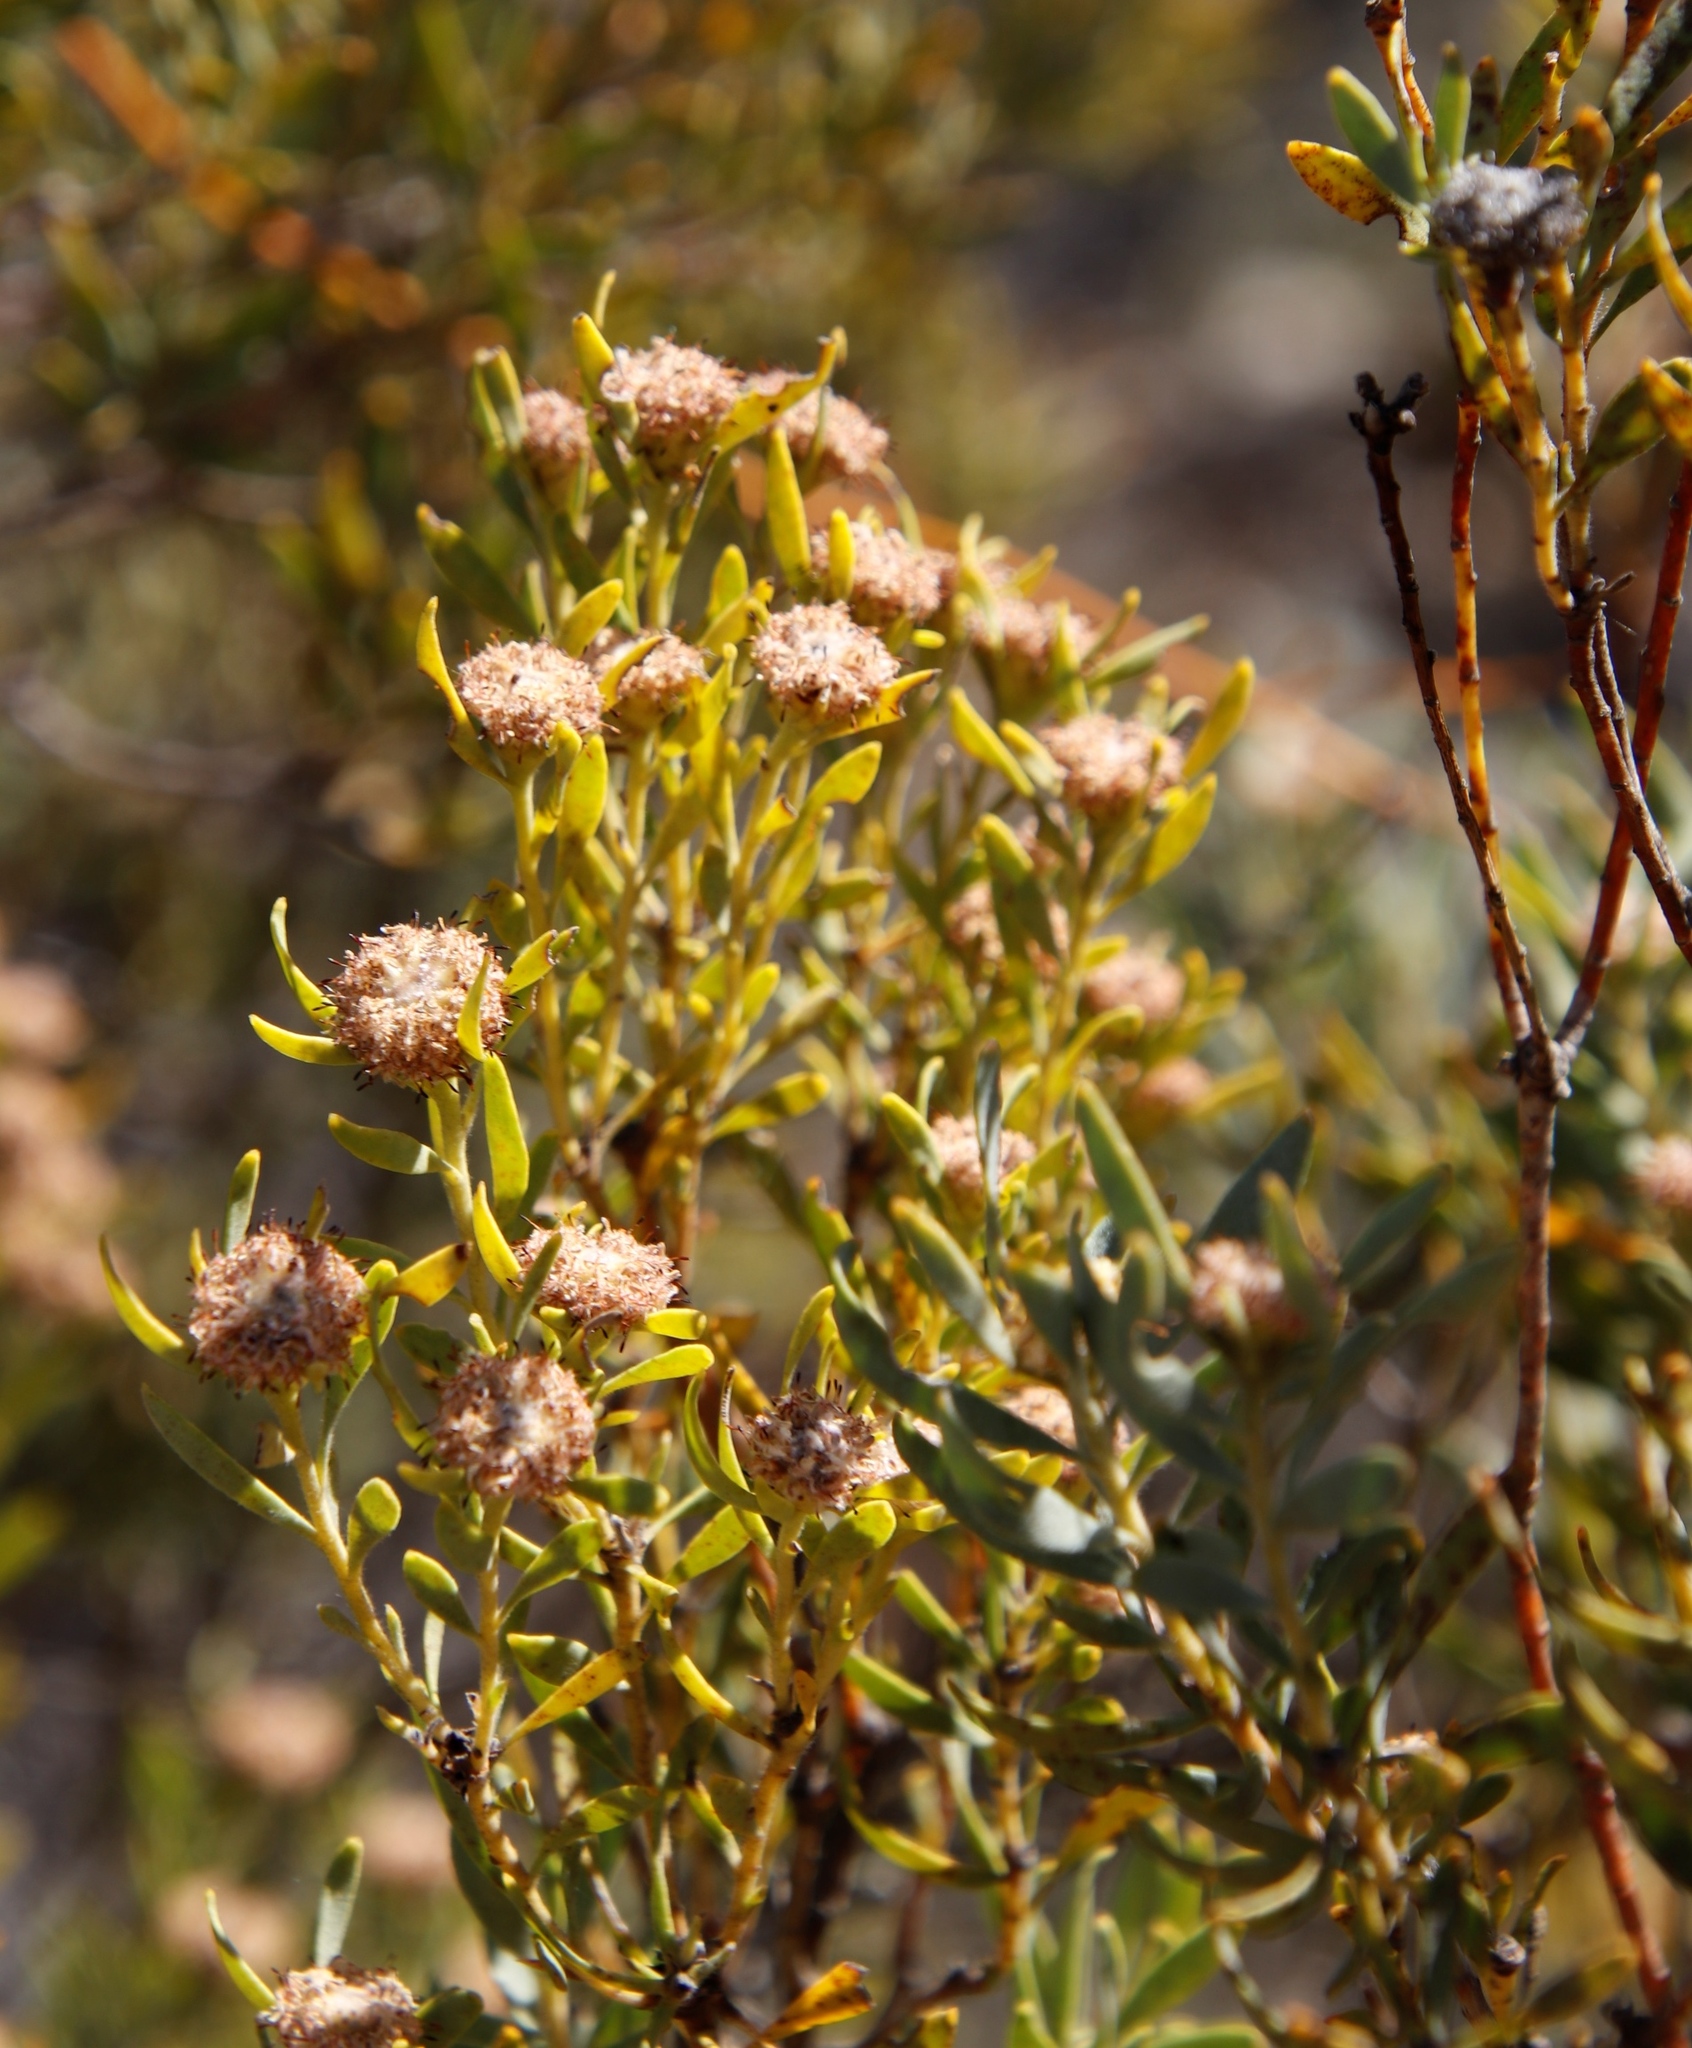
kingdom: Plantae
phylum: Tracheophyta
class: Magnoliopsida
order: Proteales
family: Proteaceae
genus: Leucadendron
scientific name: Leucadendron pubescens
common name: Grey conebush
